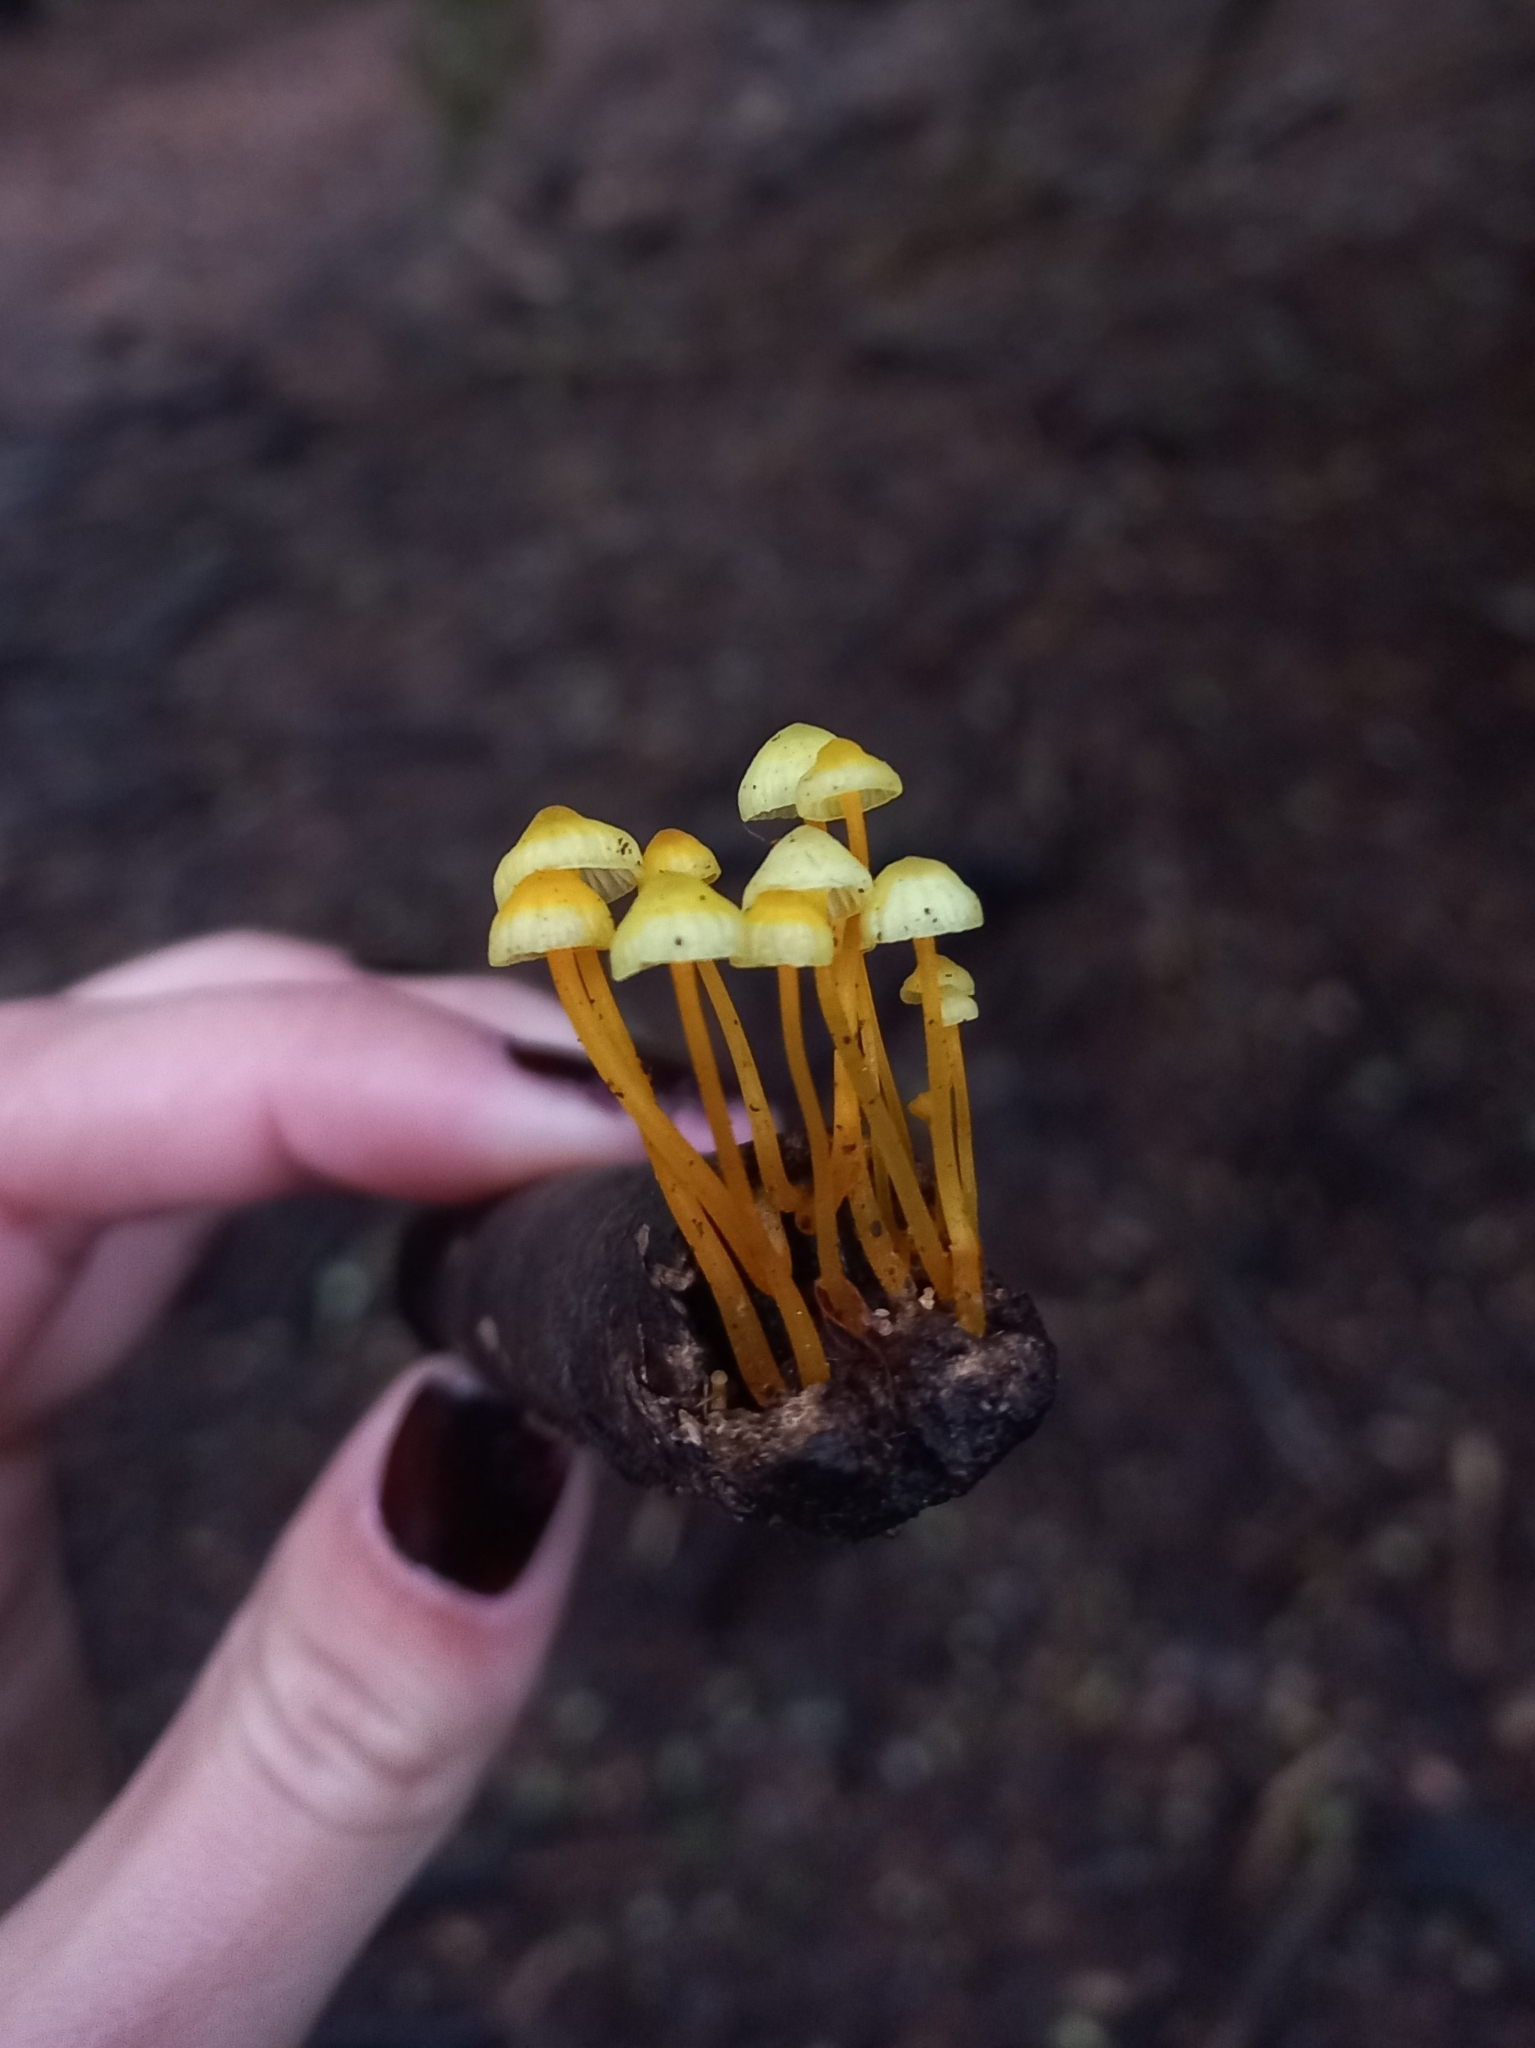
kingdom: Fungi
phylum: Basidiomycota
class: Agaricomycetes
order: Agaricales
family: Mycenaceae
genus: Mycena
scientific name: Mycena chusqueophila
